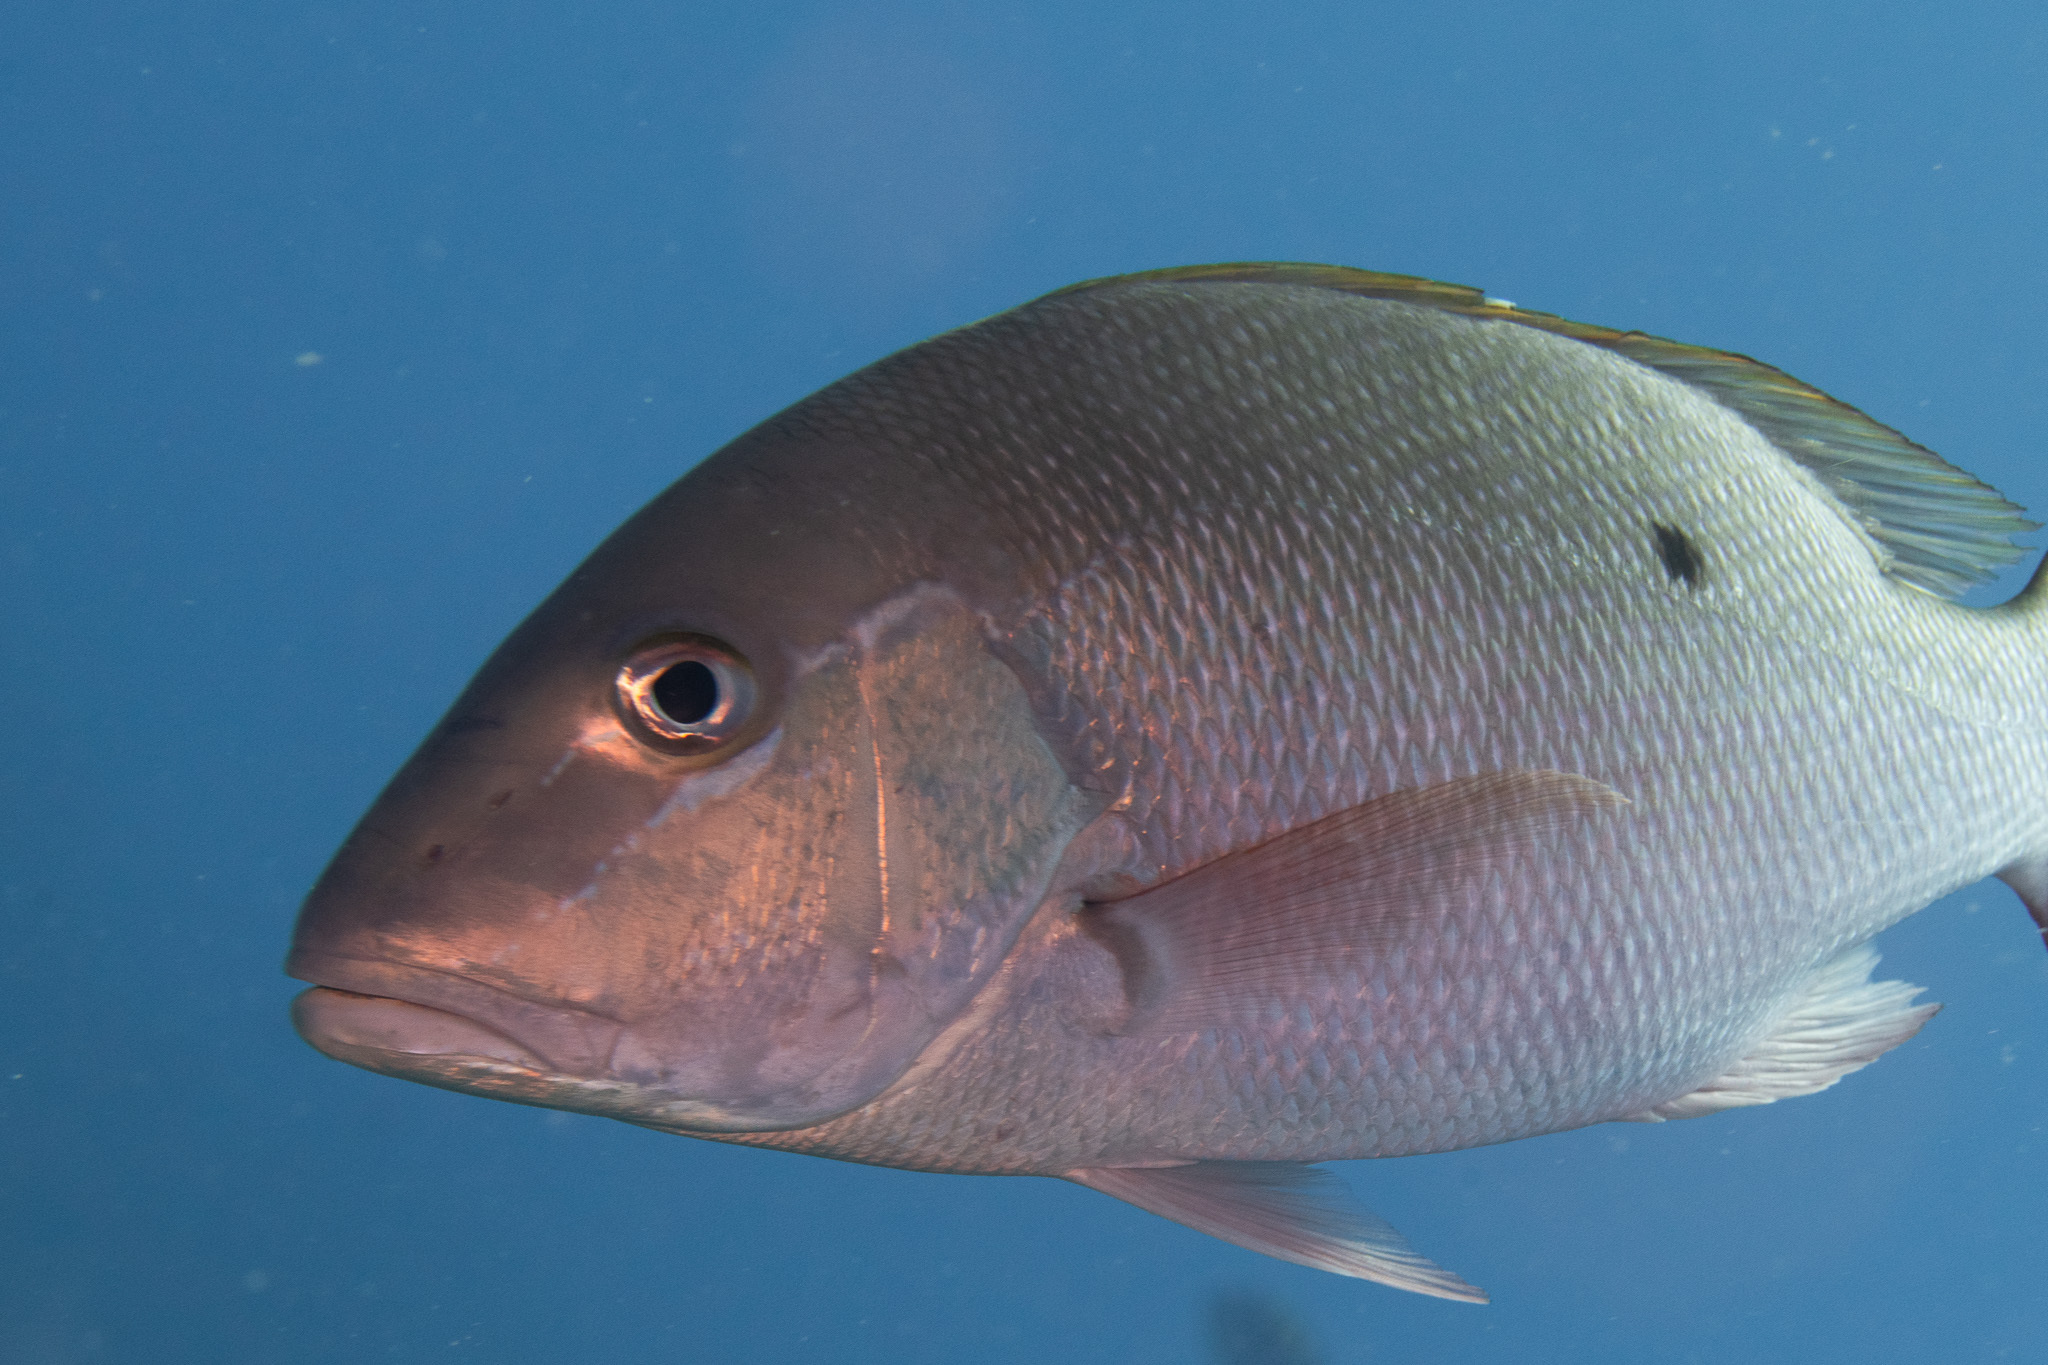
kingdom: Animalia
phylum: Chordata
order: Perciformes
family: Lutjanidae
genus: Lutjanus
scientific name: Lutjanus analis
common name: Mutton snapper
